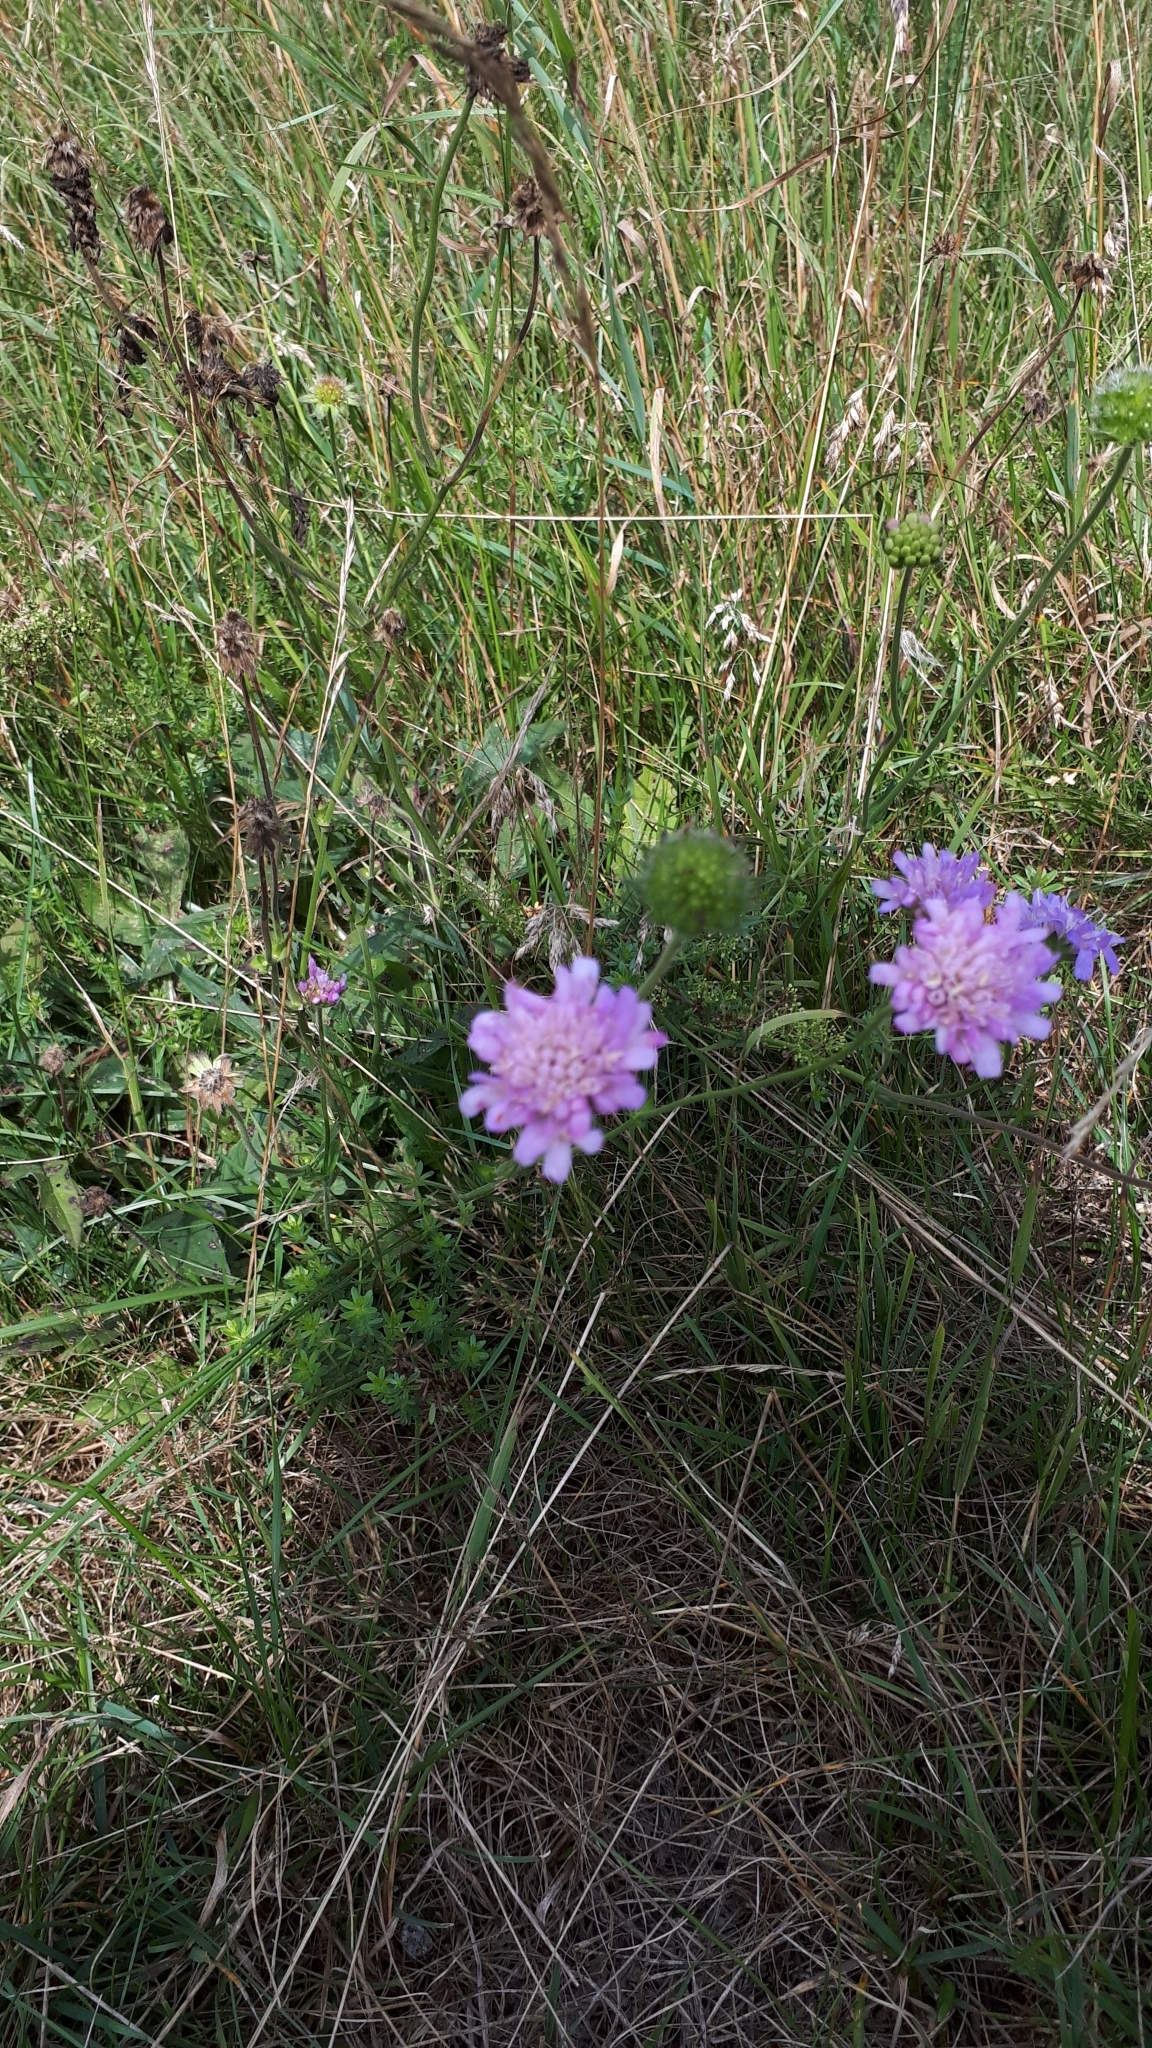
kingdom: Plantae
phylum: Tracheophyta
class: Magnoliopsida
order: Dipsacales
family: Caprifoliaceae
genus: Knautia
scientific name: Knautia arvensis
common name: Field scabiosa
